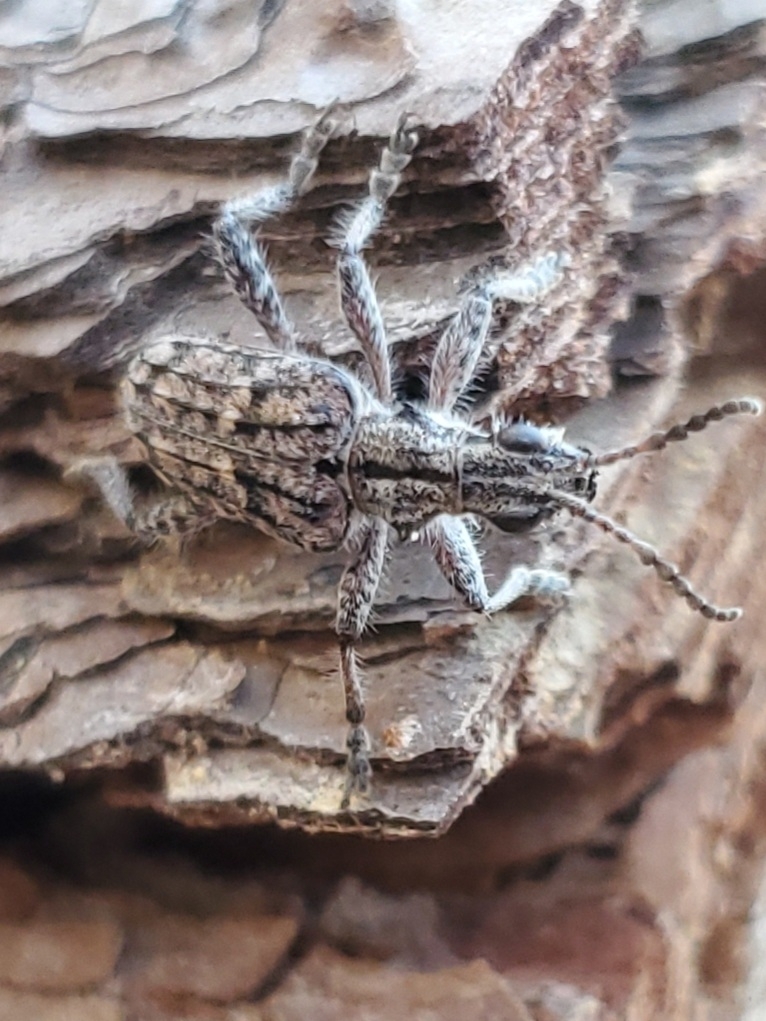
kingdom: Animalia
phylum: Arthropoda
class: Insecta
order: Coleoptera
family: Cerambycidae
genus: Rhagium
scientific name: Rhagium inquisitor
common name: Ribbed pine borer
